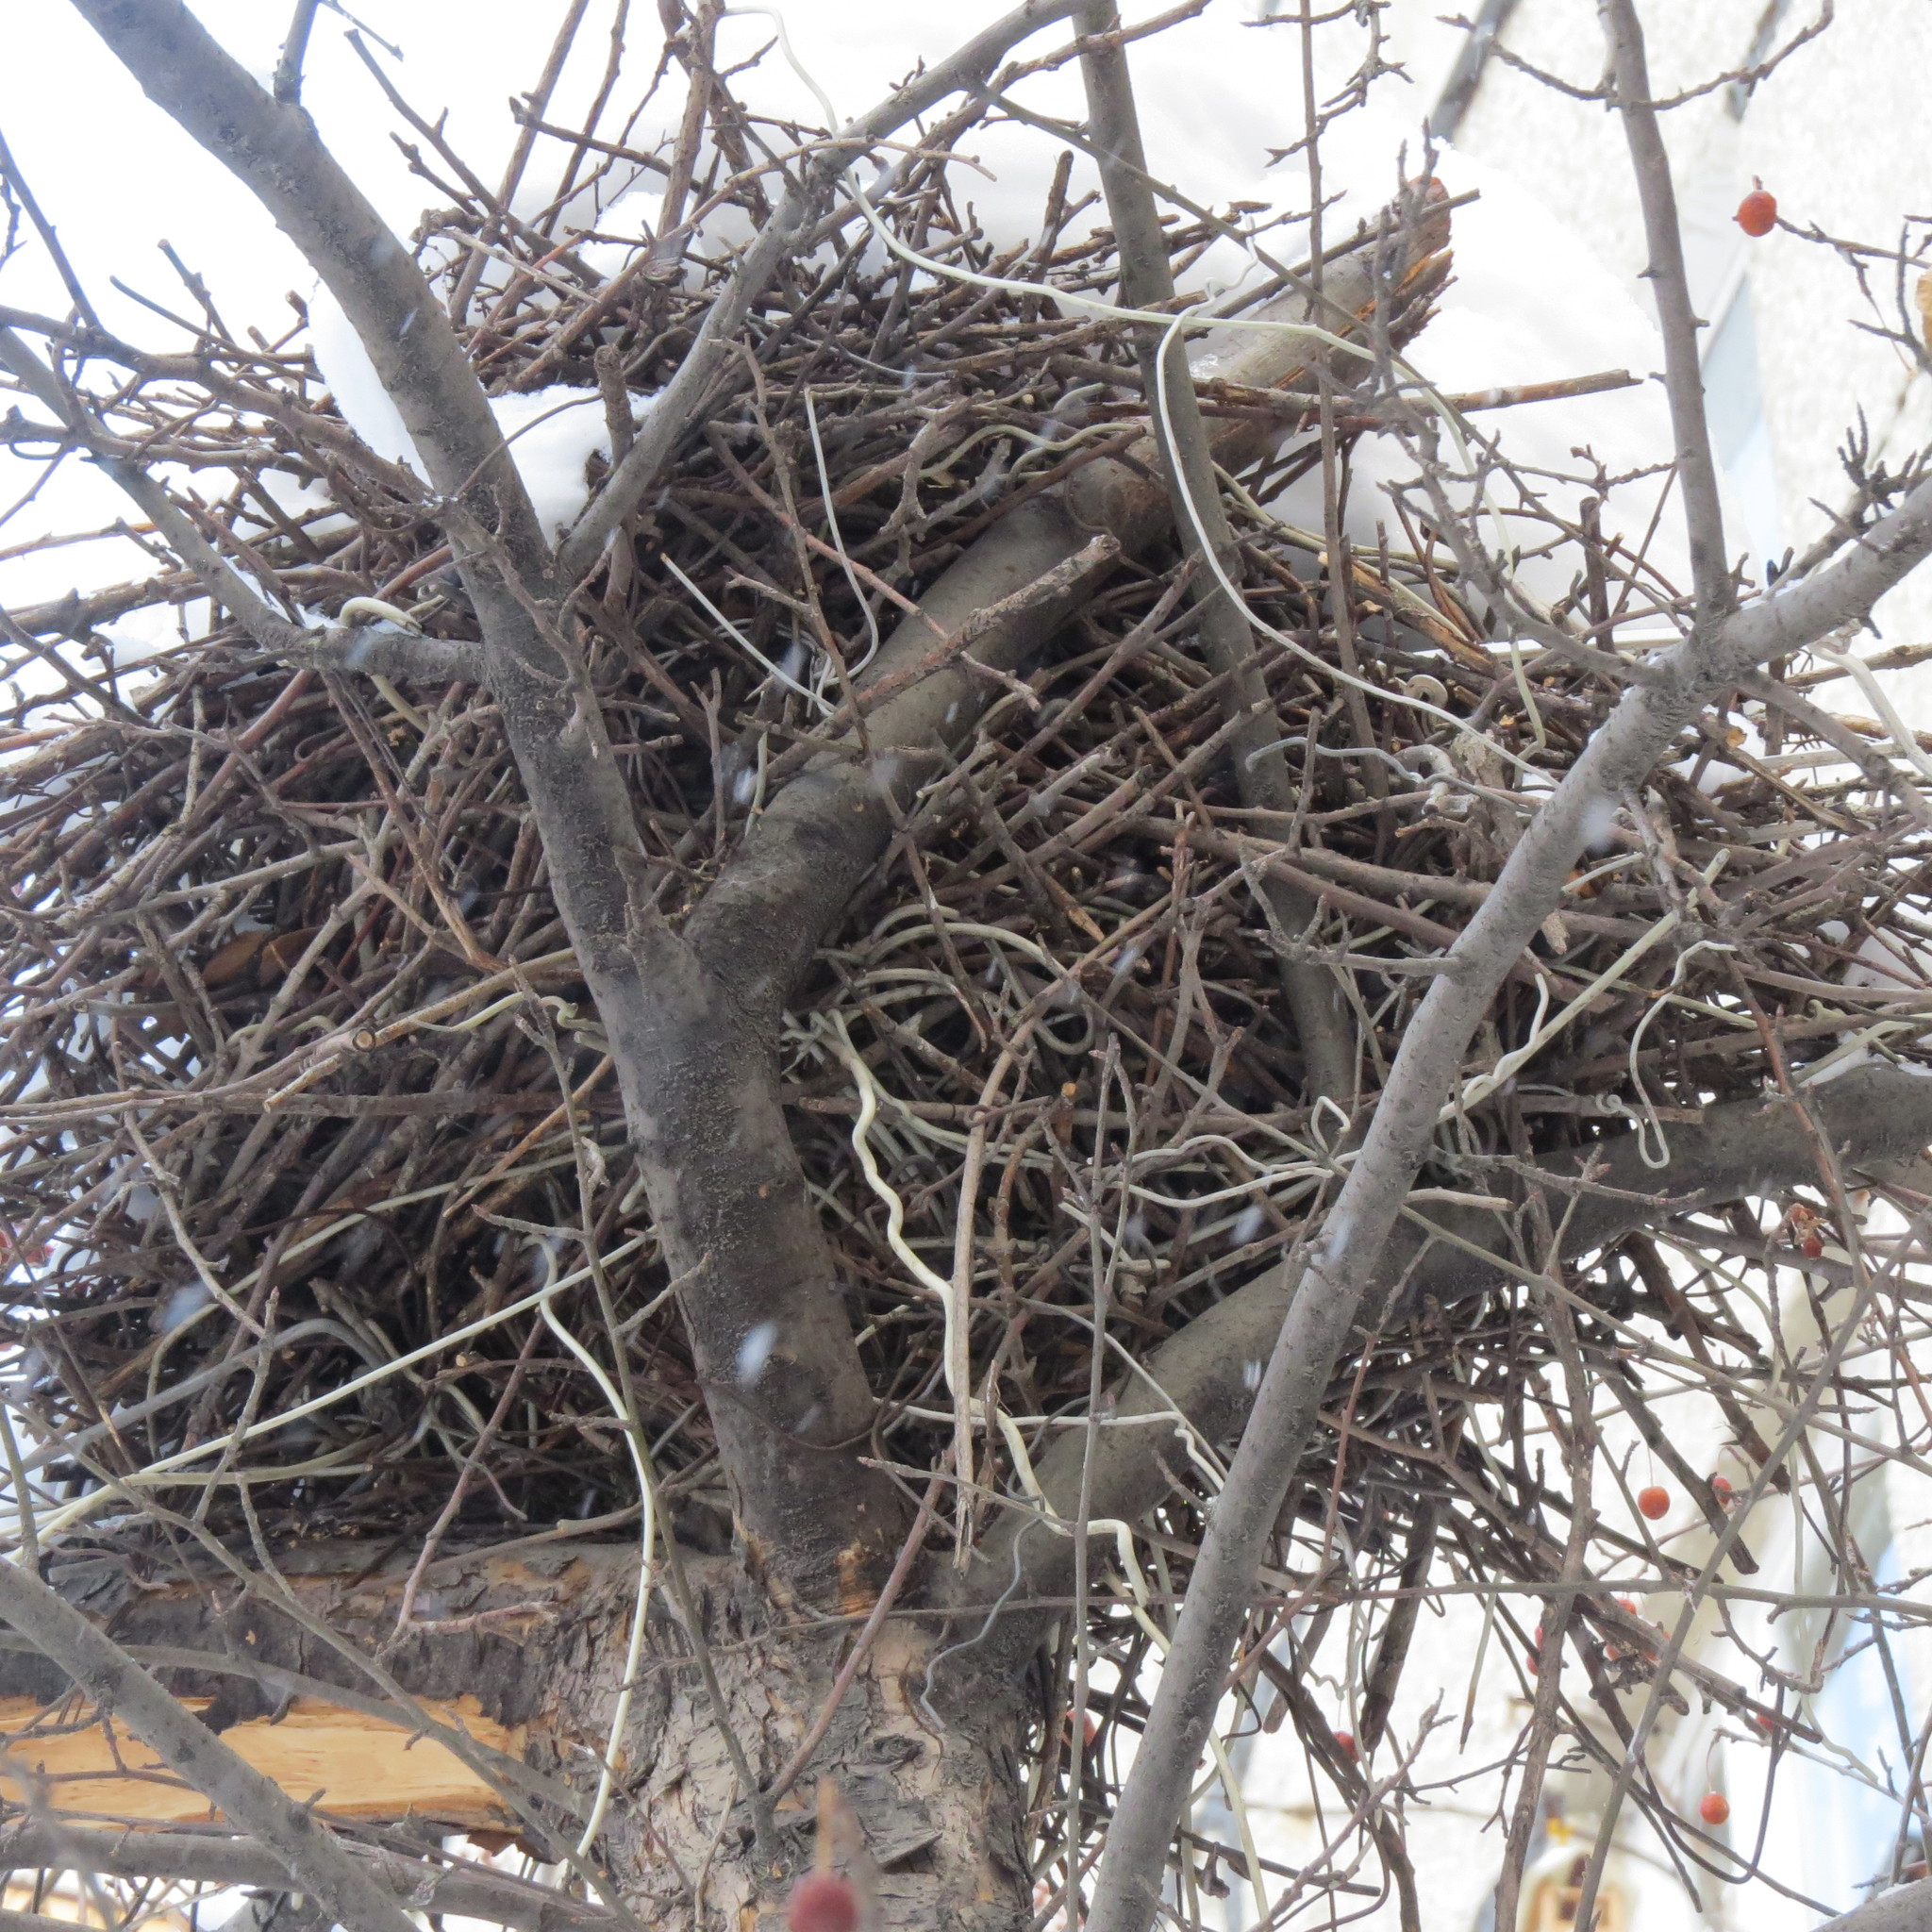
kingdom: Animalia
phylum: Chordata
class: Aves
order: Passeriformes
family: Corvidae
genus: Pica
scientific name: Pica pica
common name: Eurasian magpie
